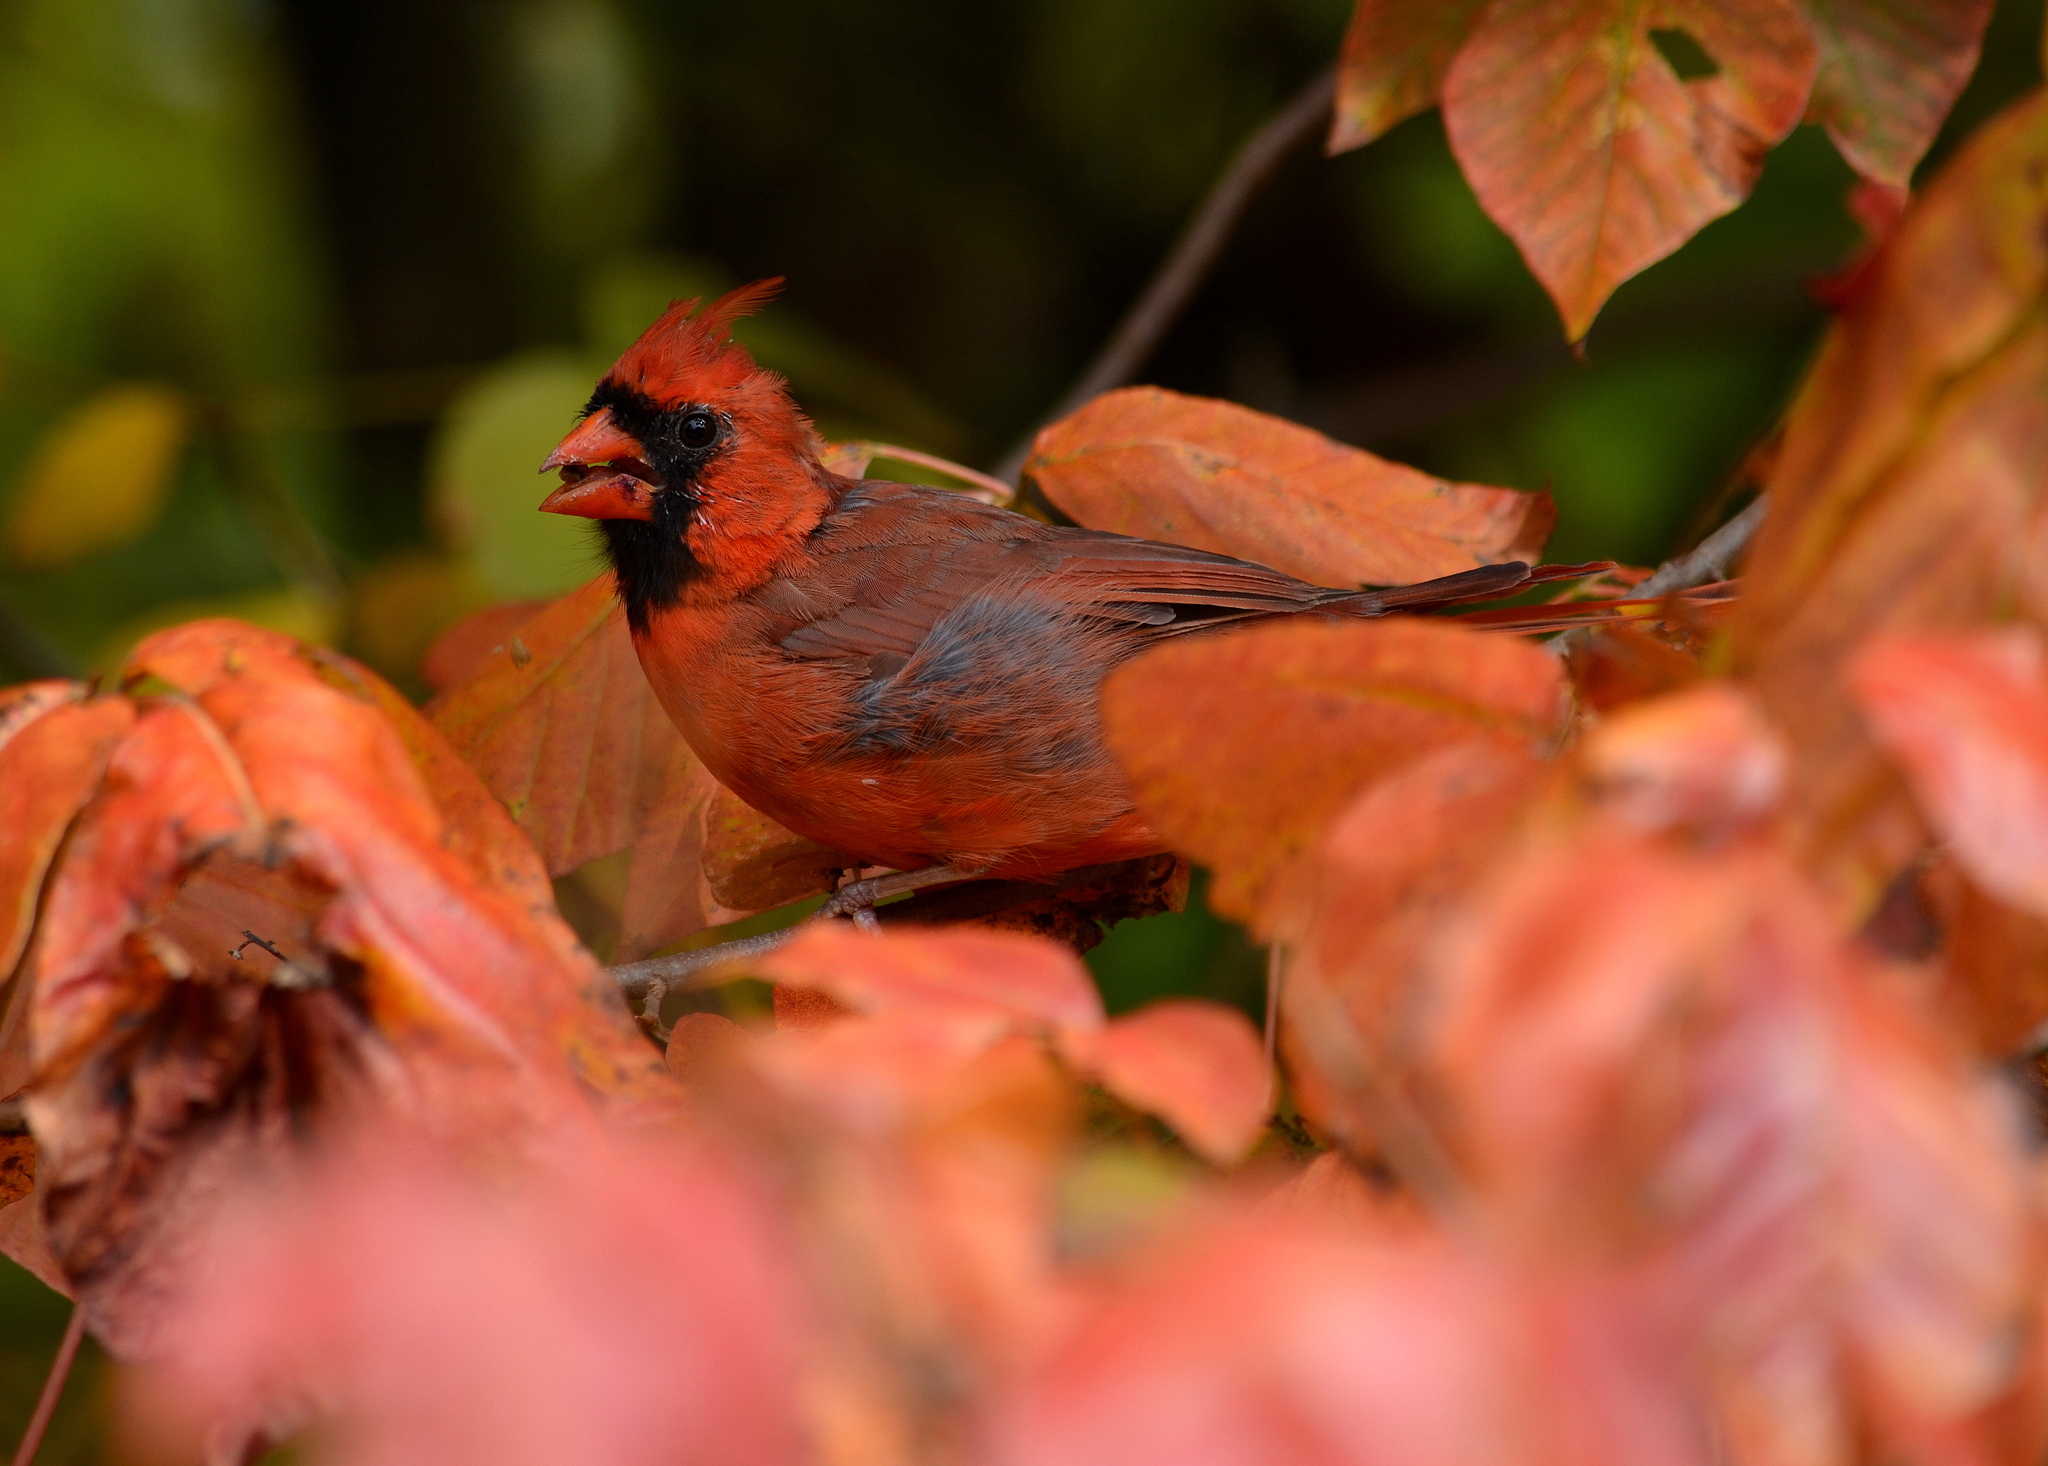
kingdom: Animalia
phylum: Chordata
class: Aves
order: Passeriformes
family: Cardinalidae
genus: Cardinalis
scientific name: Cardinalis cardinalis
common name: Northern cardinal
